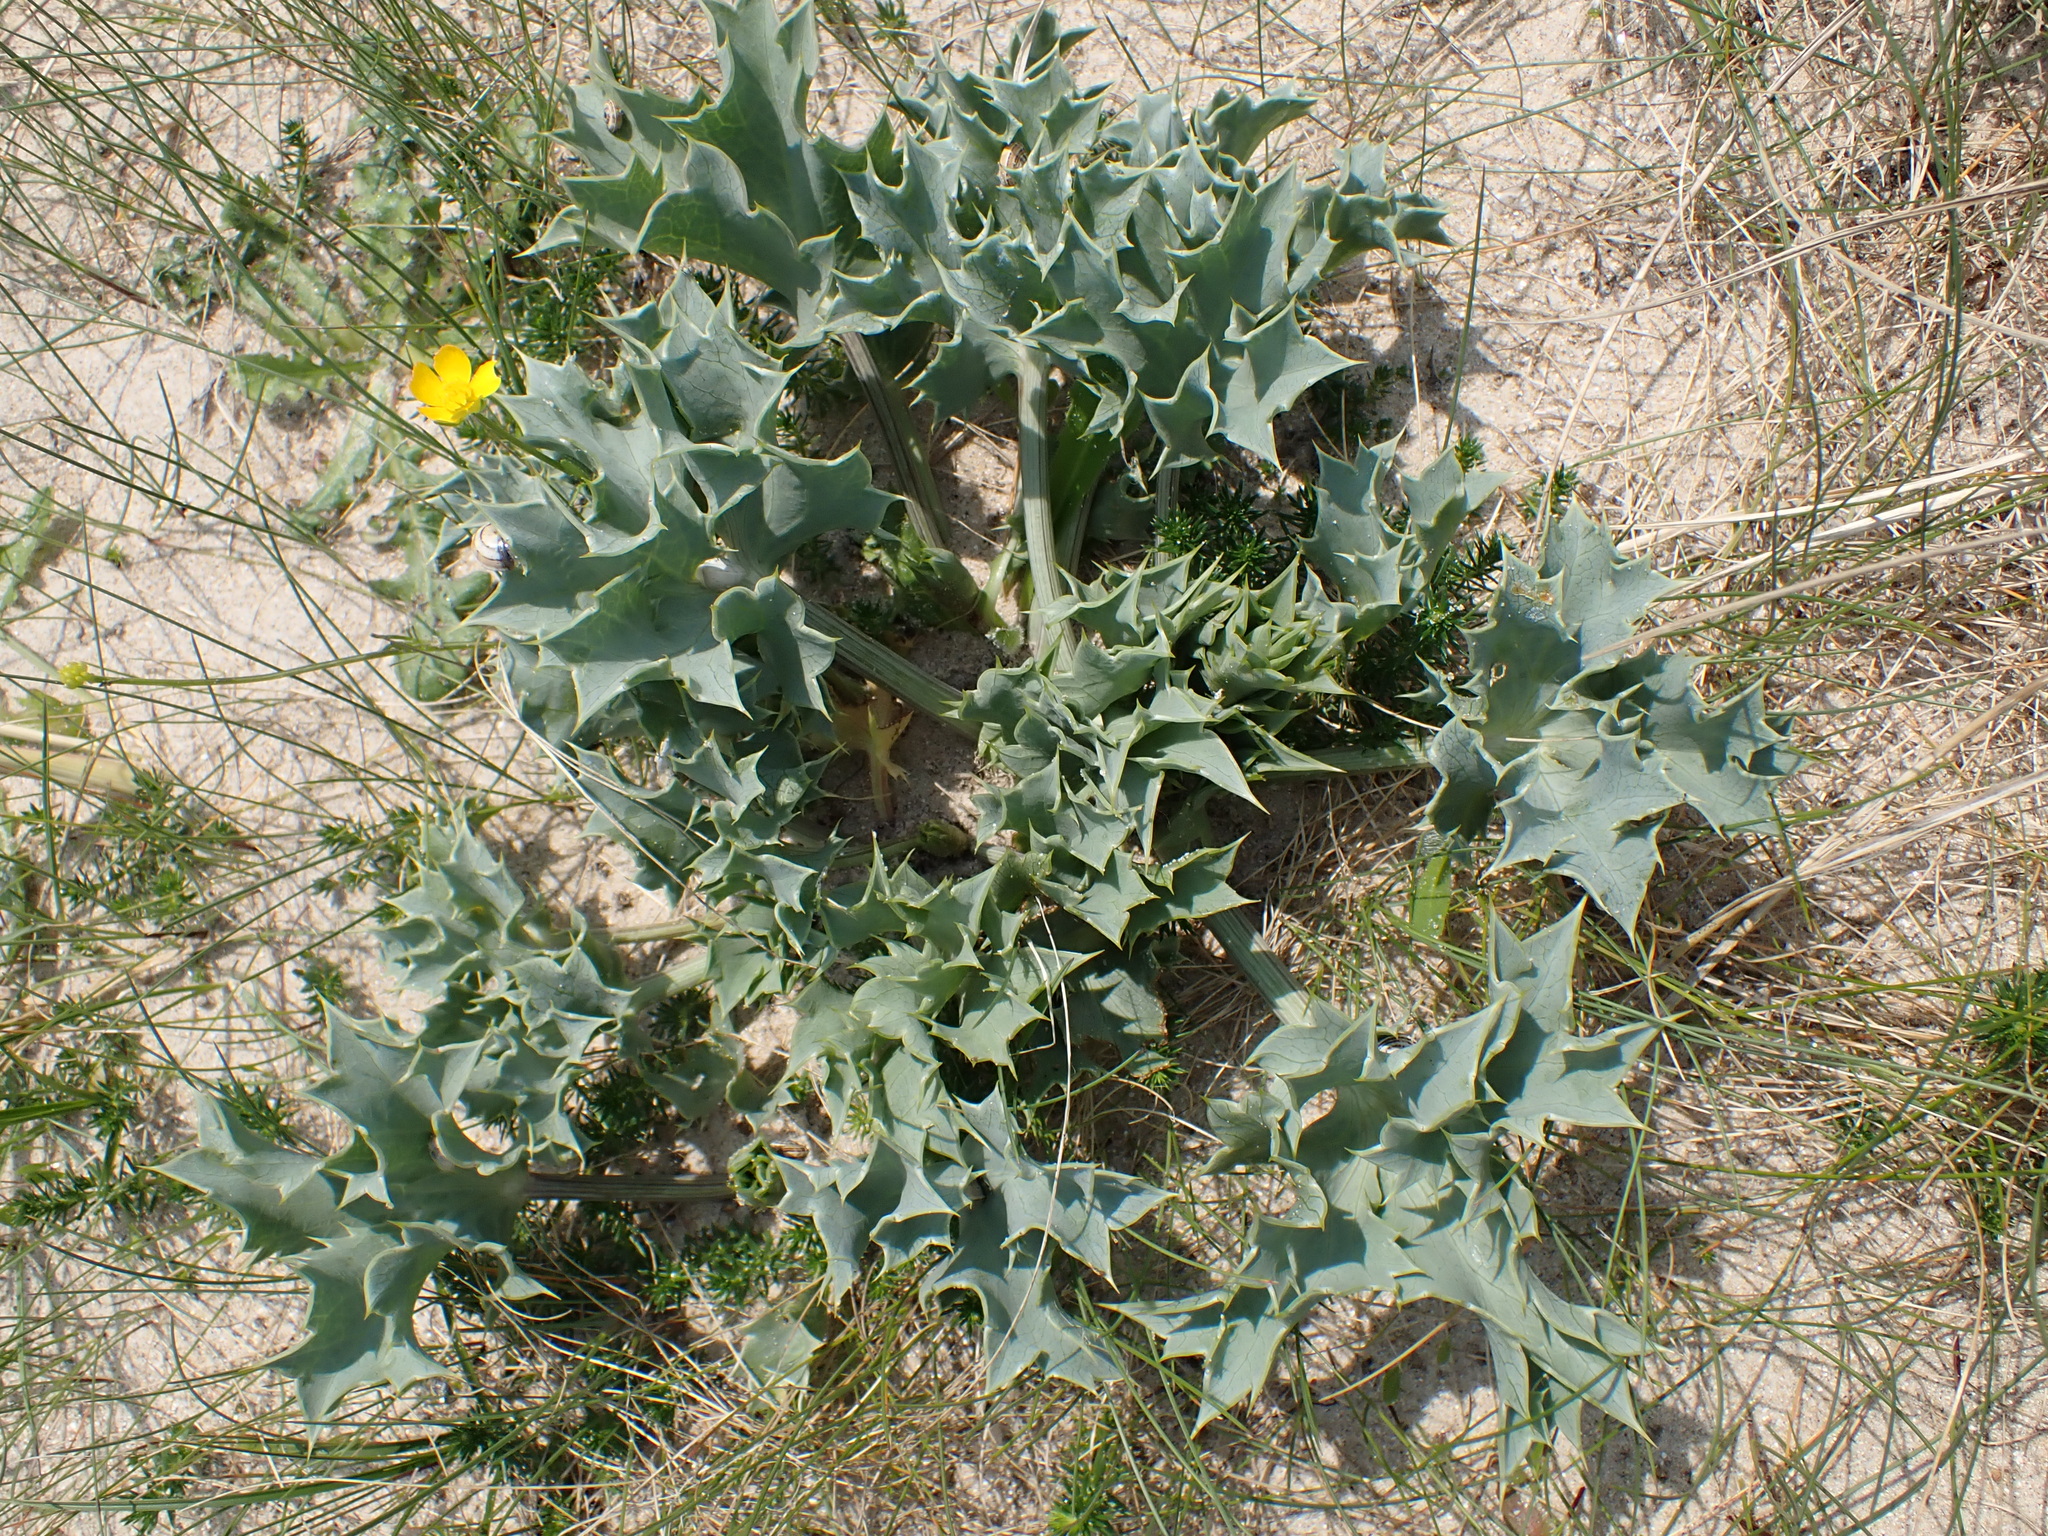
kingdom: Plantae
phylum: Tracheophyta
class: Magnoliopsida
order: Apiales
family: Apiaceae
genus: Eryngium
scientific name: Eryngium maritimum
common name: Sea-holly
